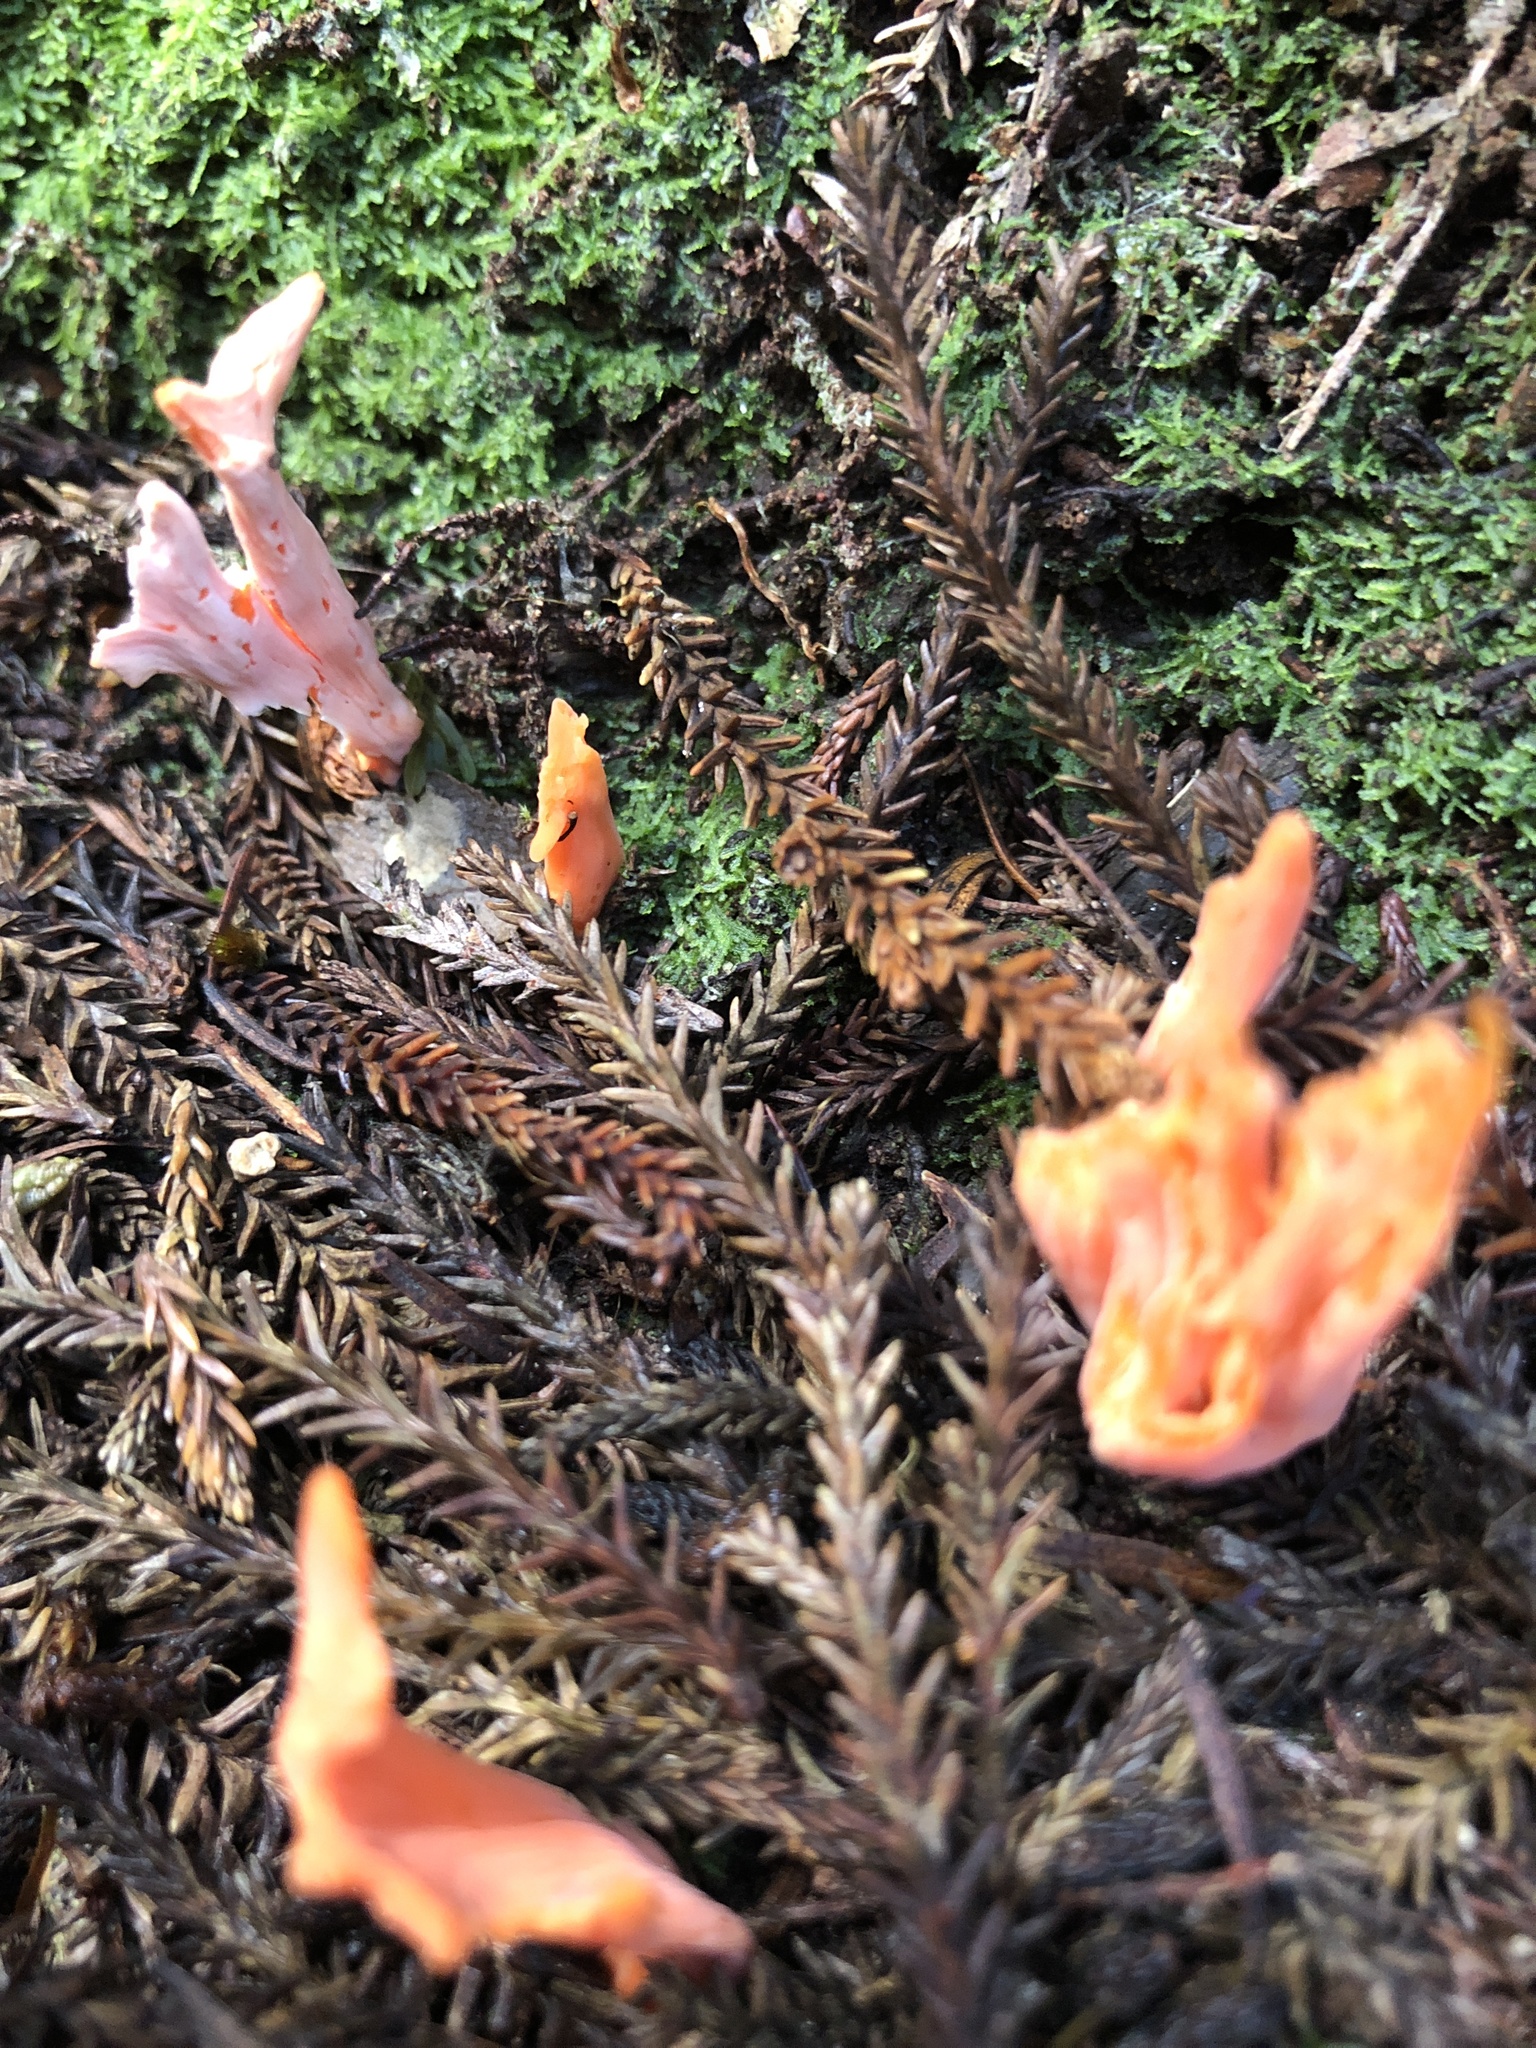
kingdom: Fungi
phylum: Basidiomycota
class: Agaricomycetes
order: Agaricales
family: Clavariaceae
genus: Clavulinopsis
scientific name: Clavulinopsis sulcata
